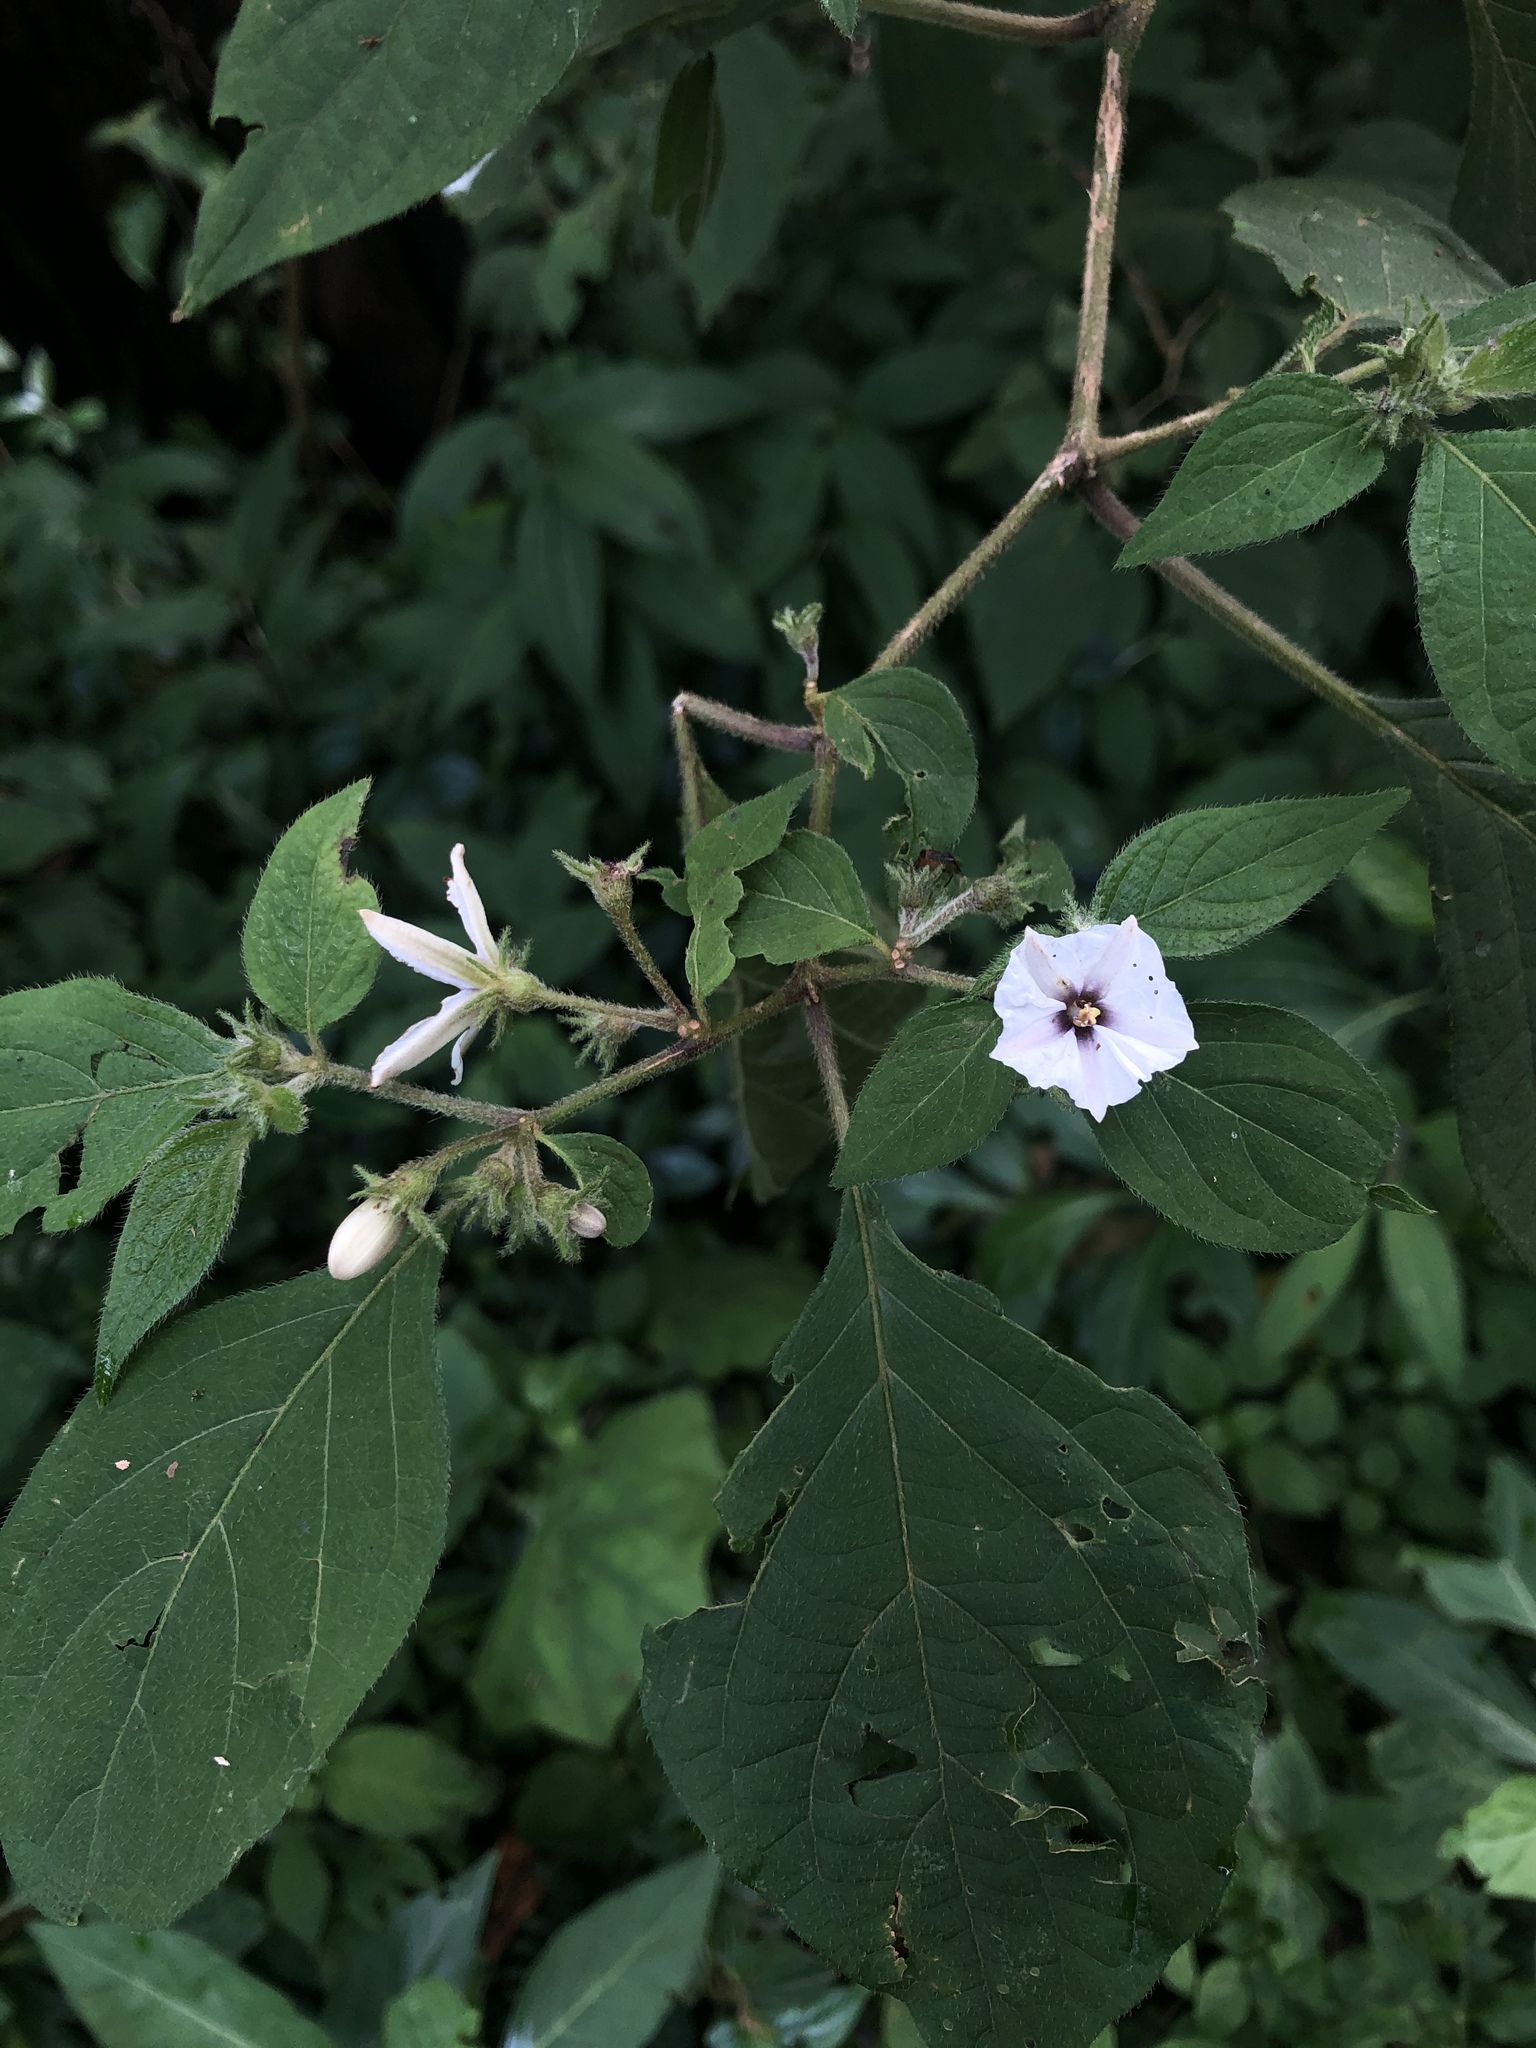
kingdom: Plantae
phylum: Tracheophyta
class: Magnoliopsida
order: Solanales
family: Solanaceae
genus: Lycianthes
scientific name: Lycianthes tricolor
